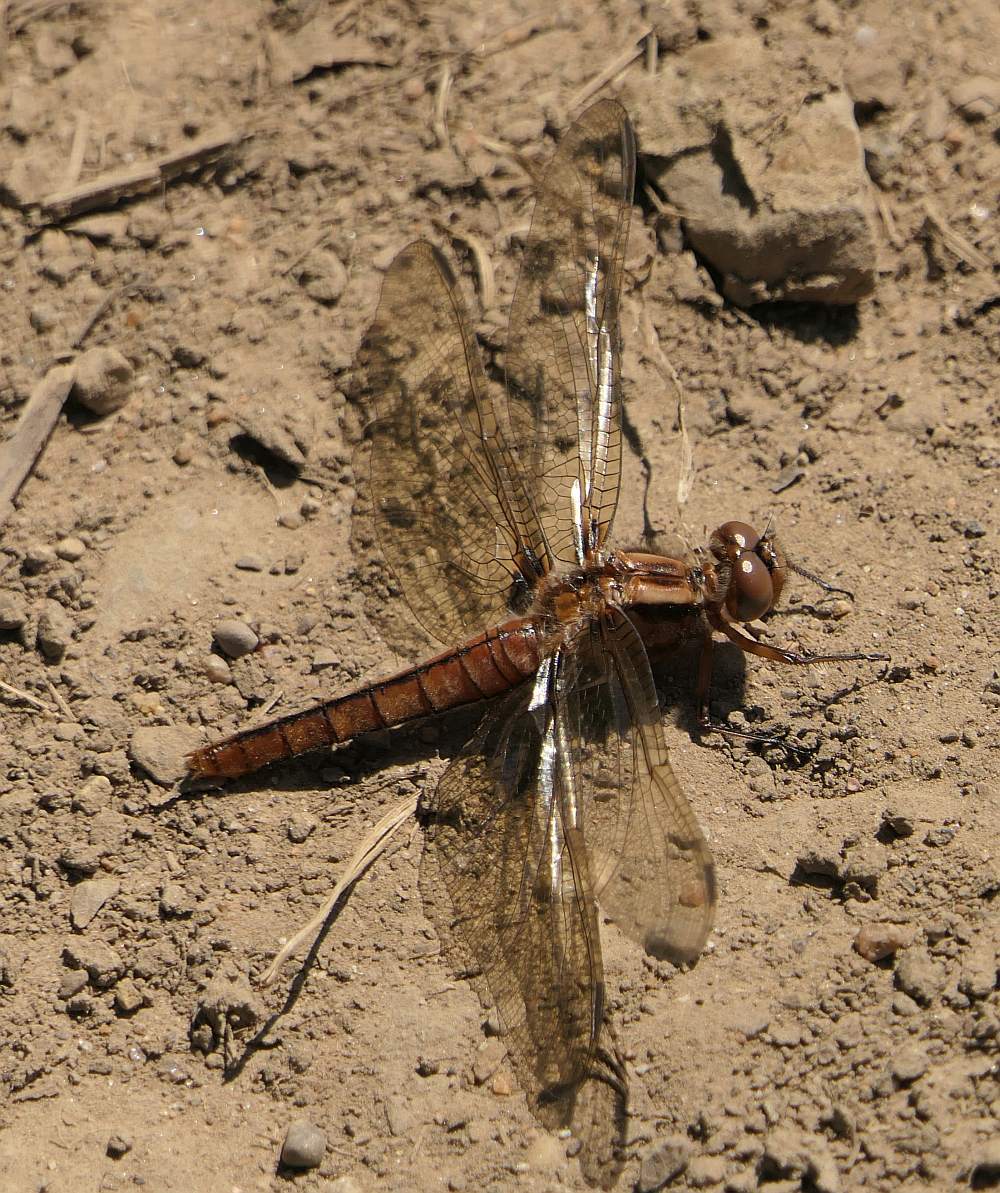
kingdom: Animalia
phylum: Arthropoda
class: Insecta
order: Odonata
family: Libellulidae
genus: Ladona
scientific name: Ladona julia
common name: Chalk-fronted corporal
